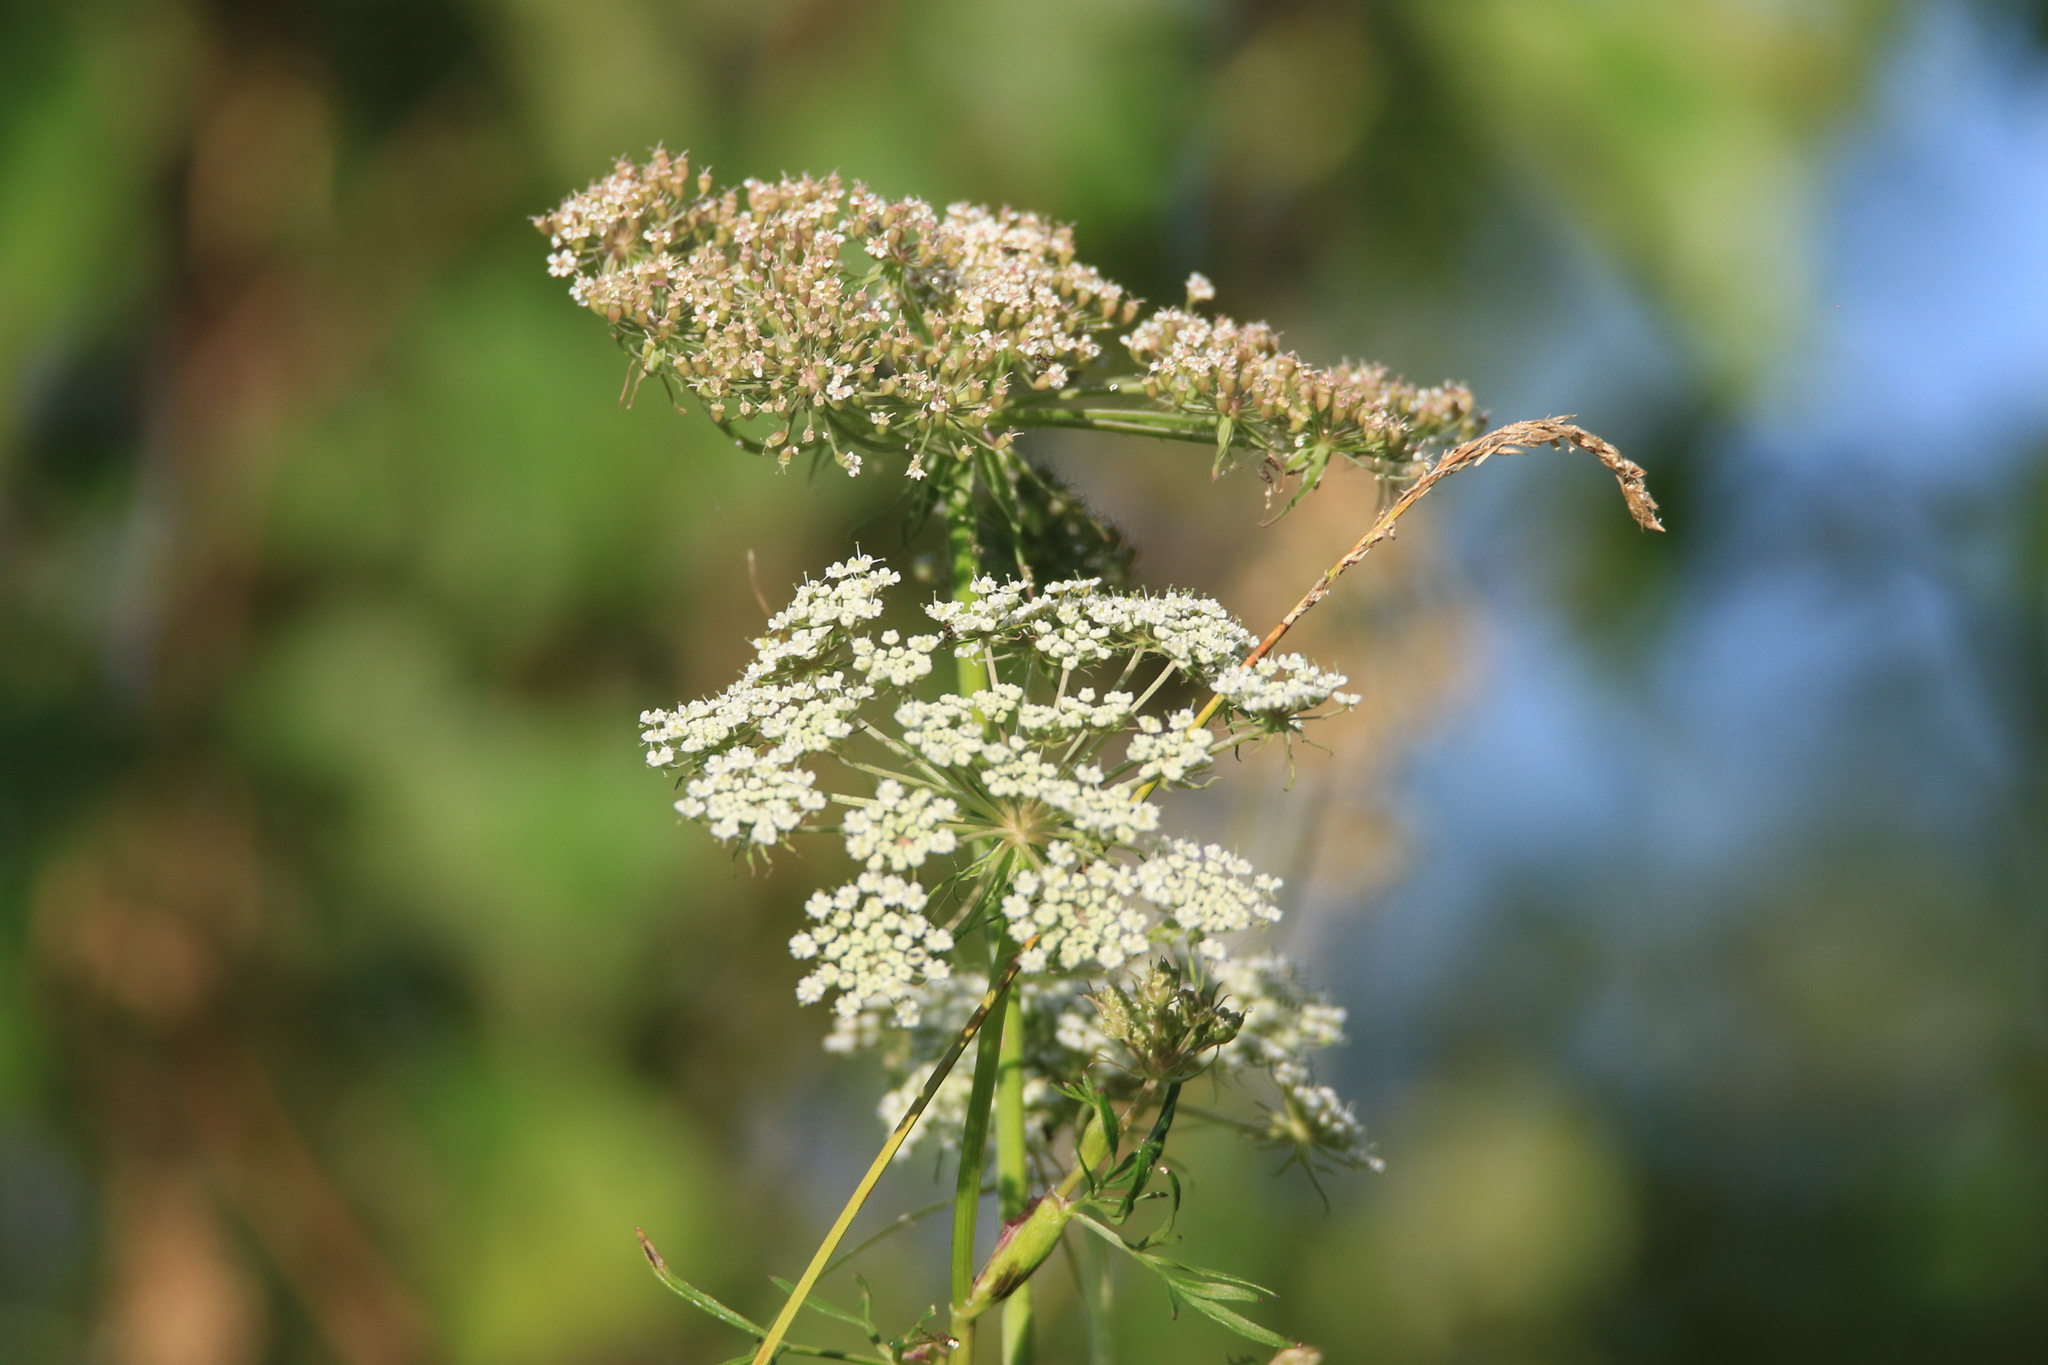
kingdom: Plantae
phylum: Tracheophyta
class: Magnoliopsida
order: Apiales
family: Apiaceae
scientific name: Apiaceae
